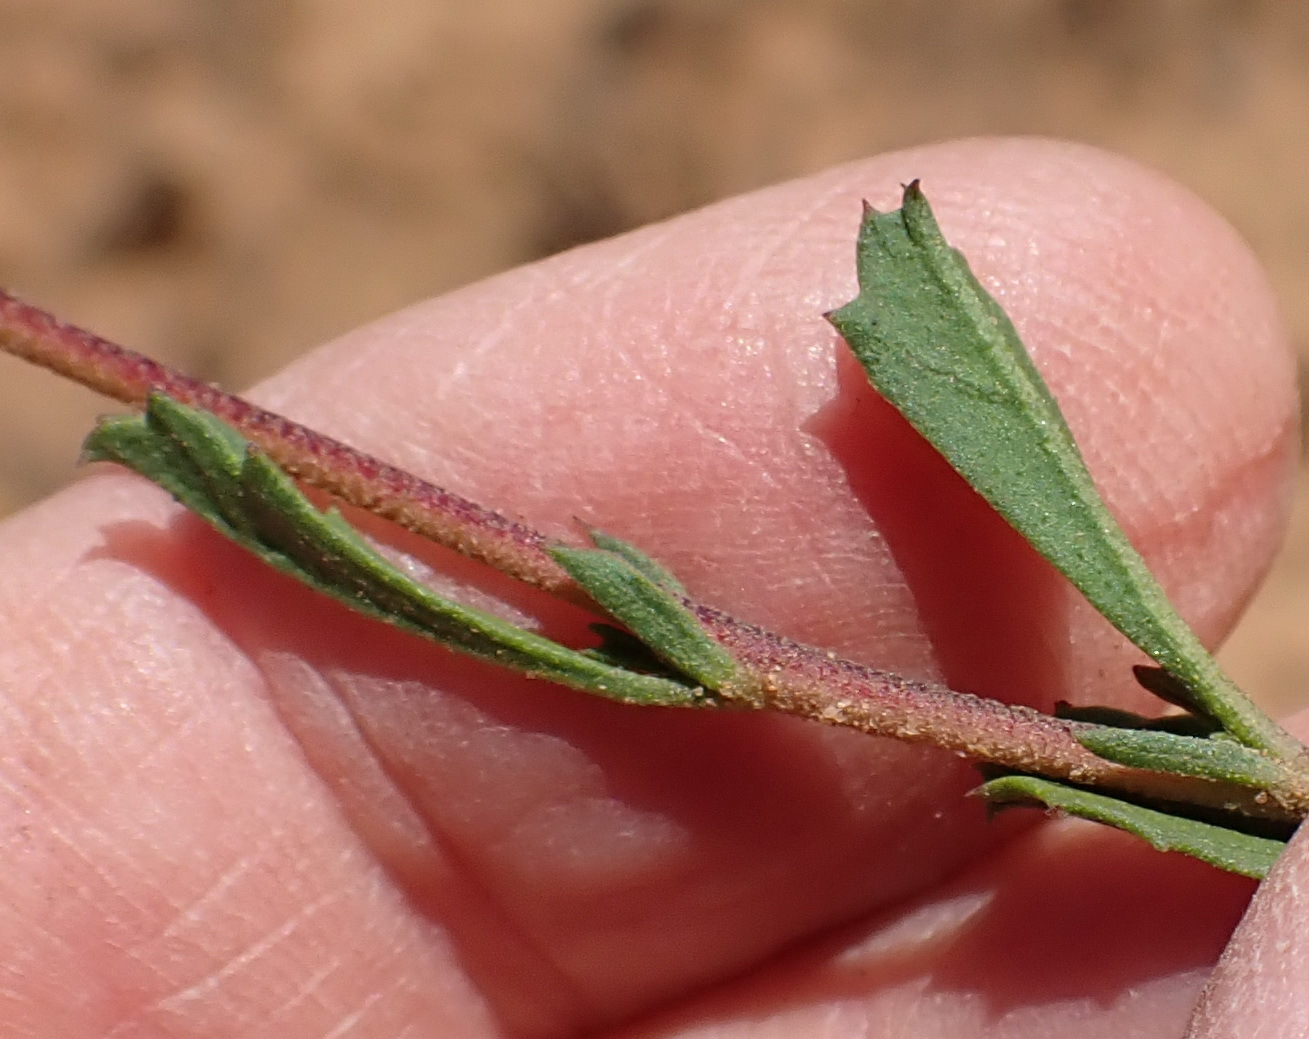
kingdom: Plantae
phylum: Tracheophyta
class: Magnoliopsida
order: Malvales
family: Malvaceae
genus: Hermannia
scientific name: Hermannia flammea
